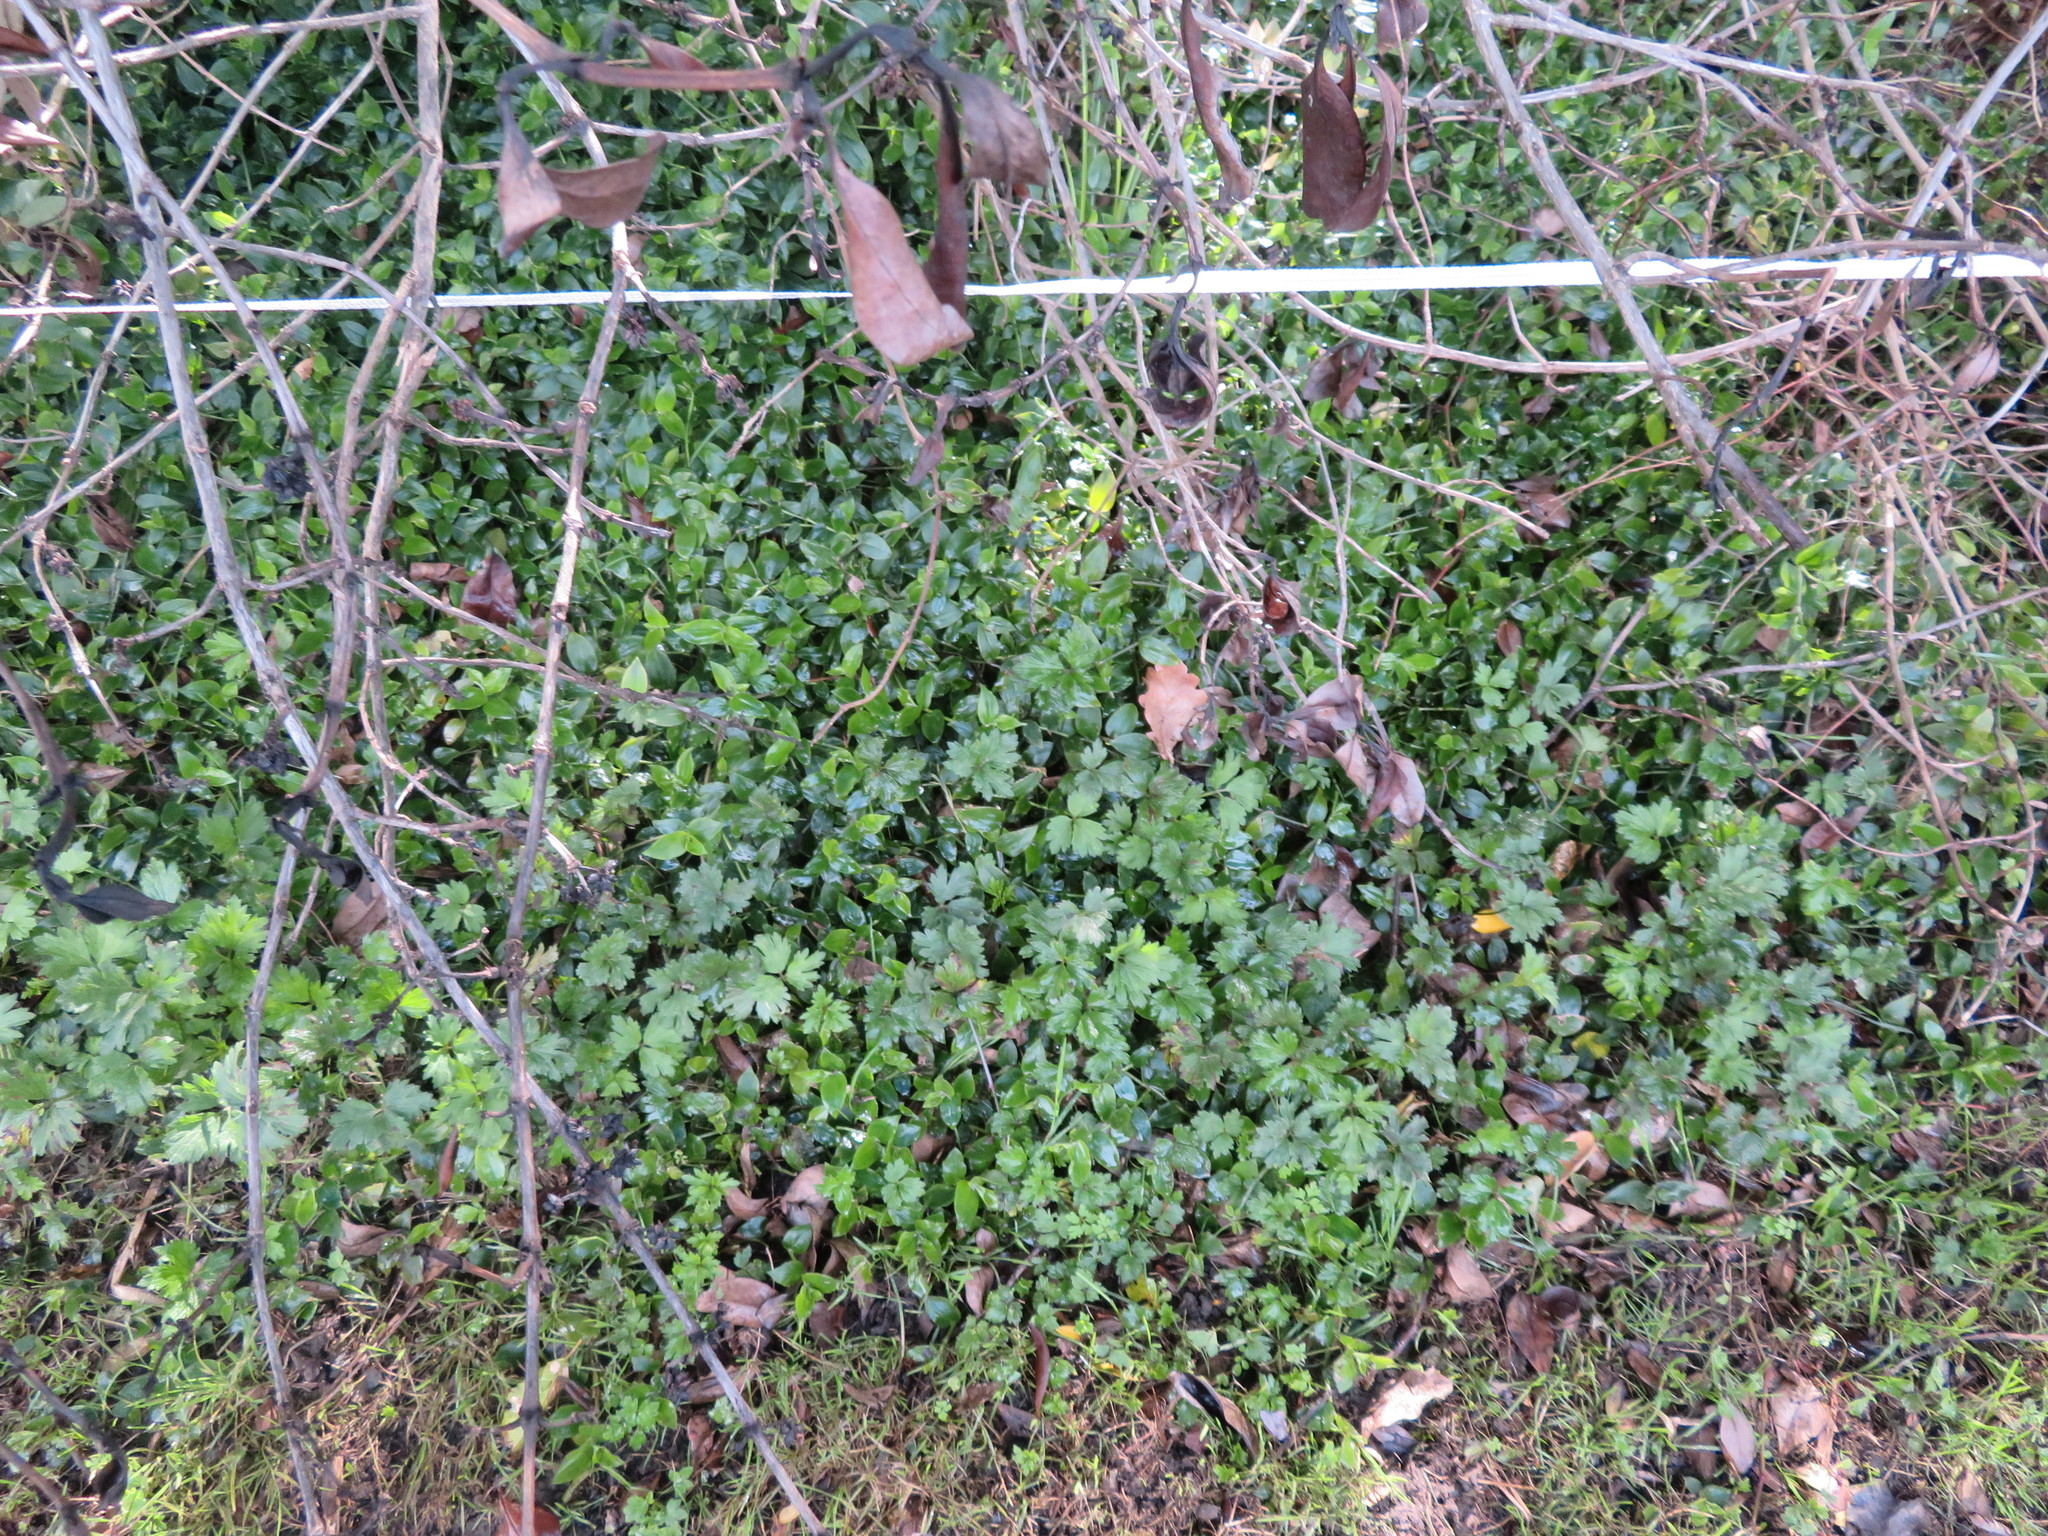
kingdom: Plantae
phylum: Tracheophyta
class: Magnoliopsida
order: Ranunculales
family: Ranunculaceae
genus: Ranunculus
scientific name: Ranunculus repens
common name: Creeping buttercup
